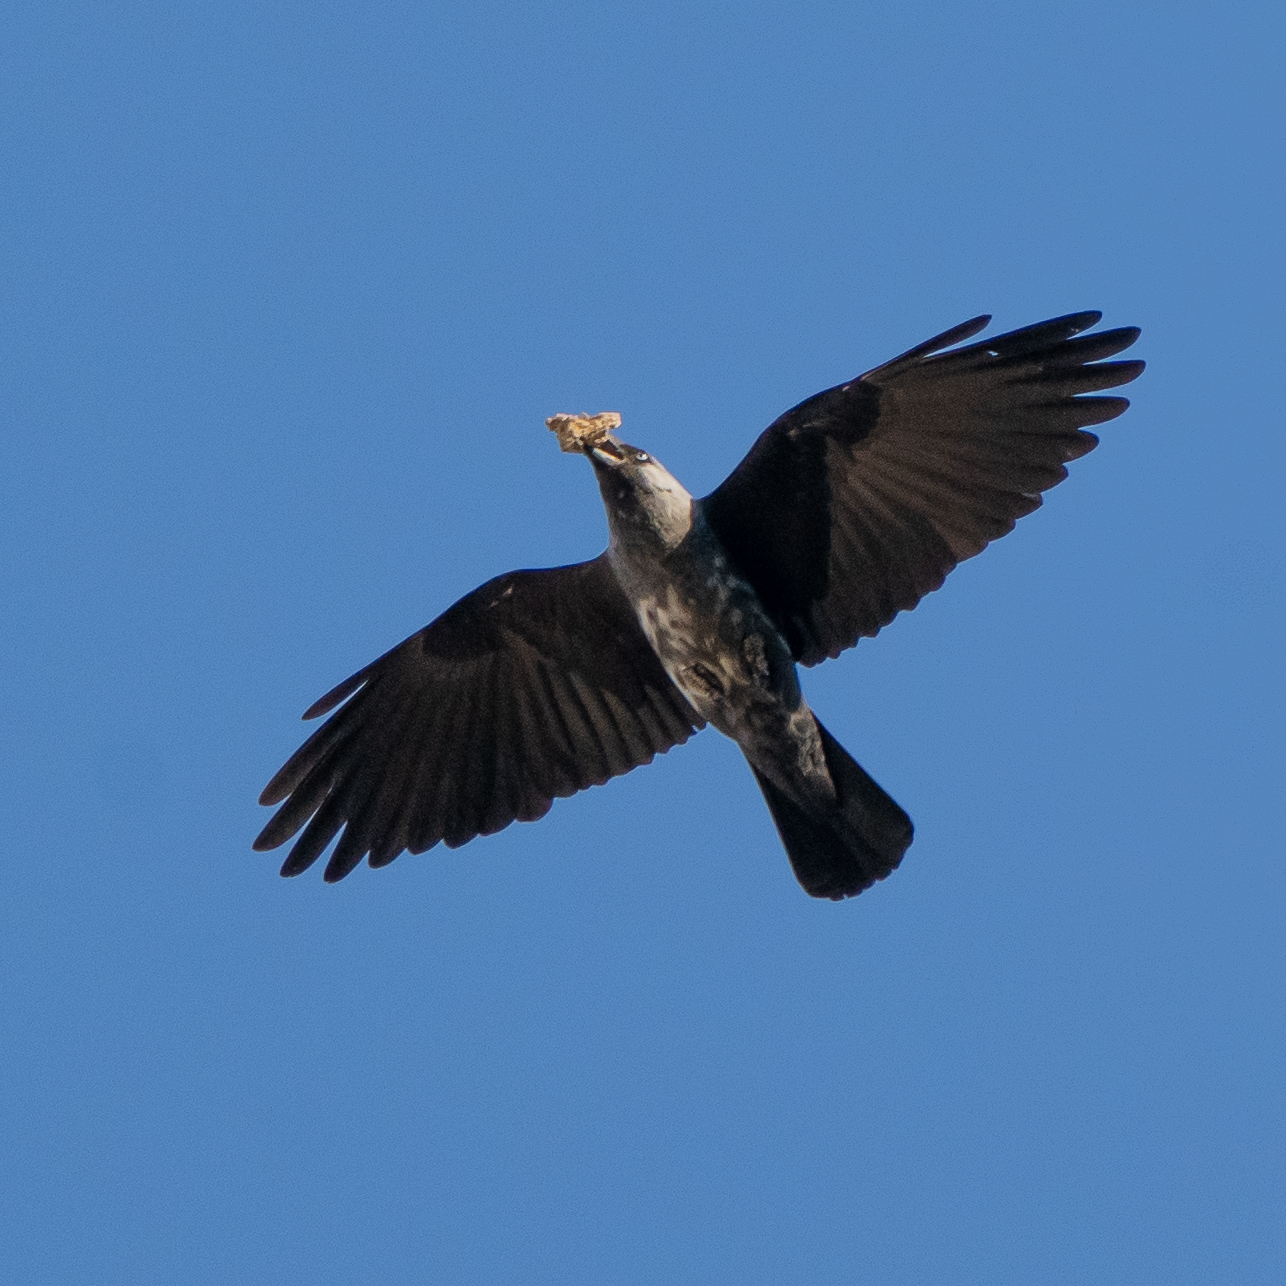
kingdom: Animalia
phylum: Chordata
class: Aves
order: Passeriformes
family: Corvidae
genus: Coloeus
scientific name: Coloeus monedula
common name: Western jackdaw
